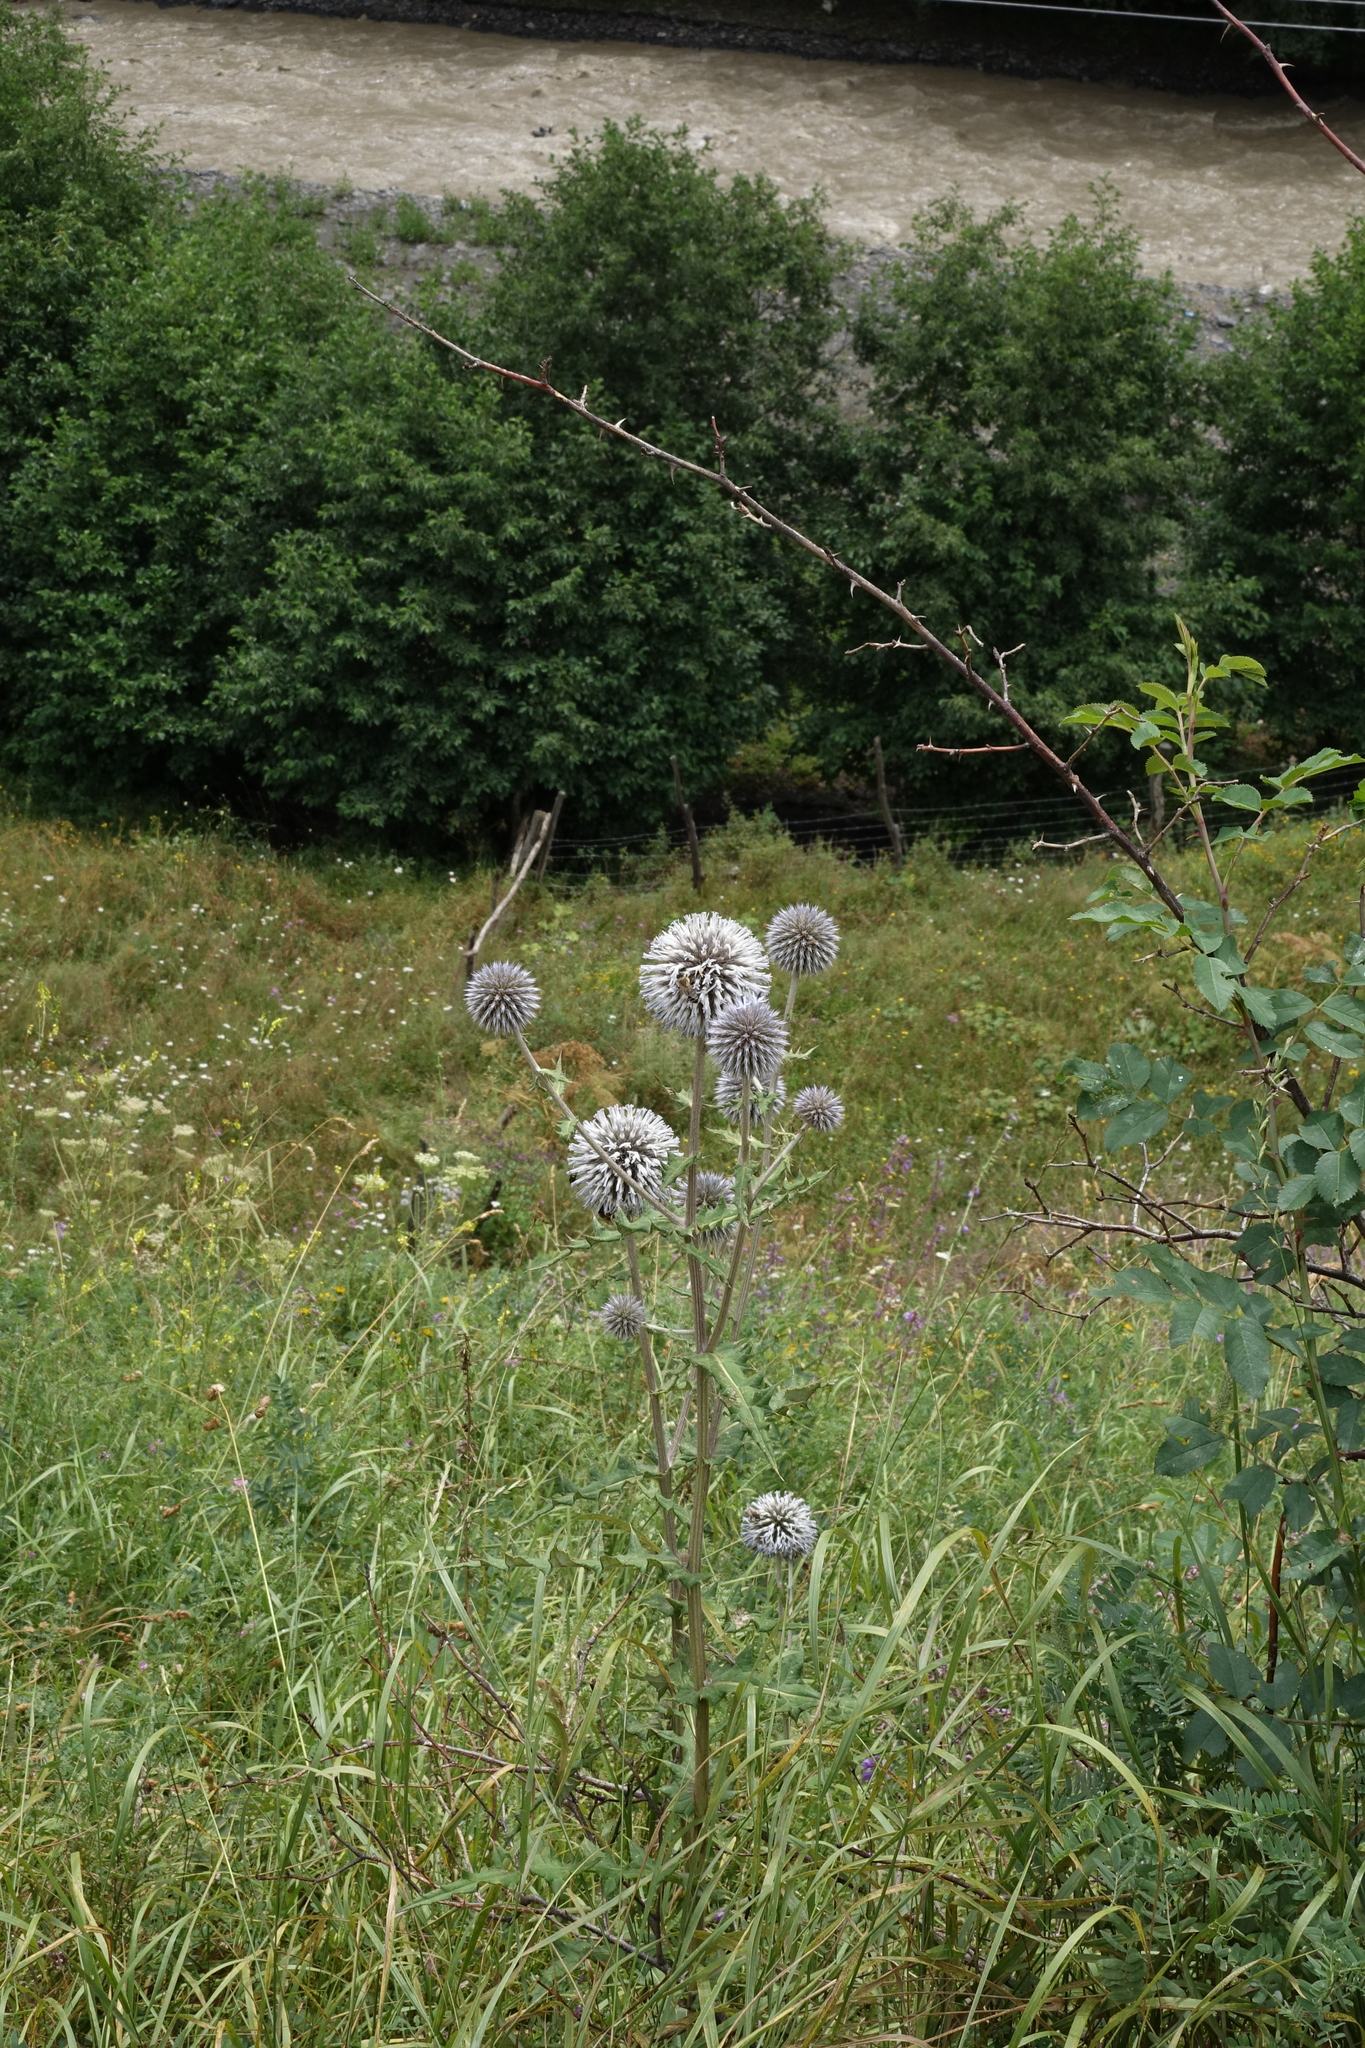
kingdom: Plantae
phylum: Tracheophyta
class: Magnoliopsida
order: Asterales
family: Asteraceae
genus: Echinops
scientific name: Echinops sphaerocephalus
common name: Glandular globe-thistle
